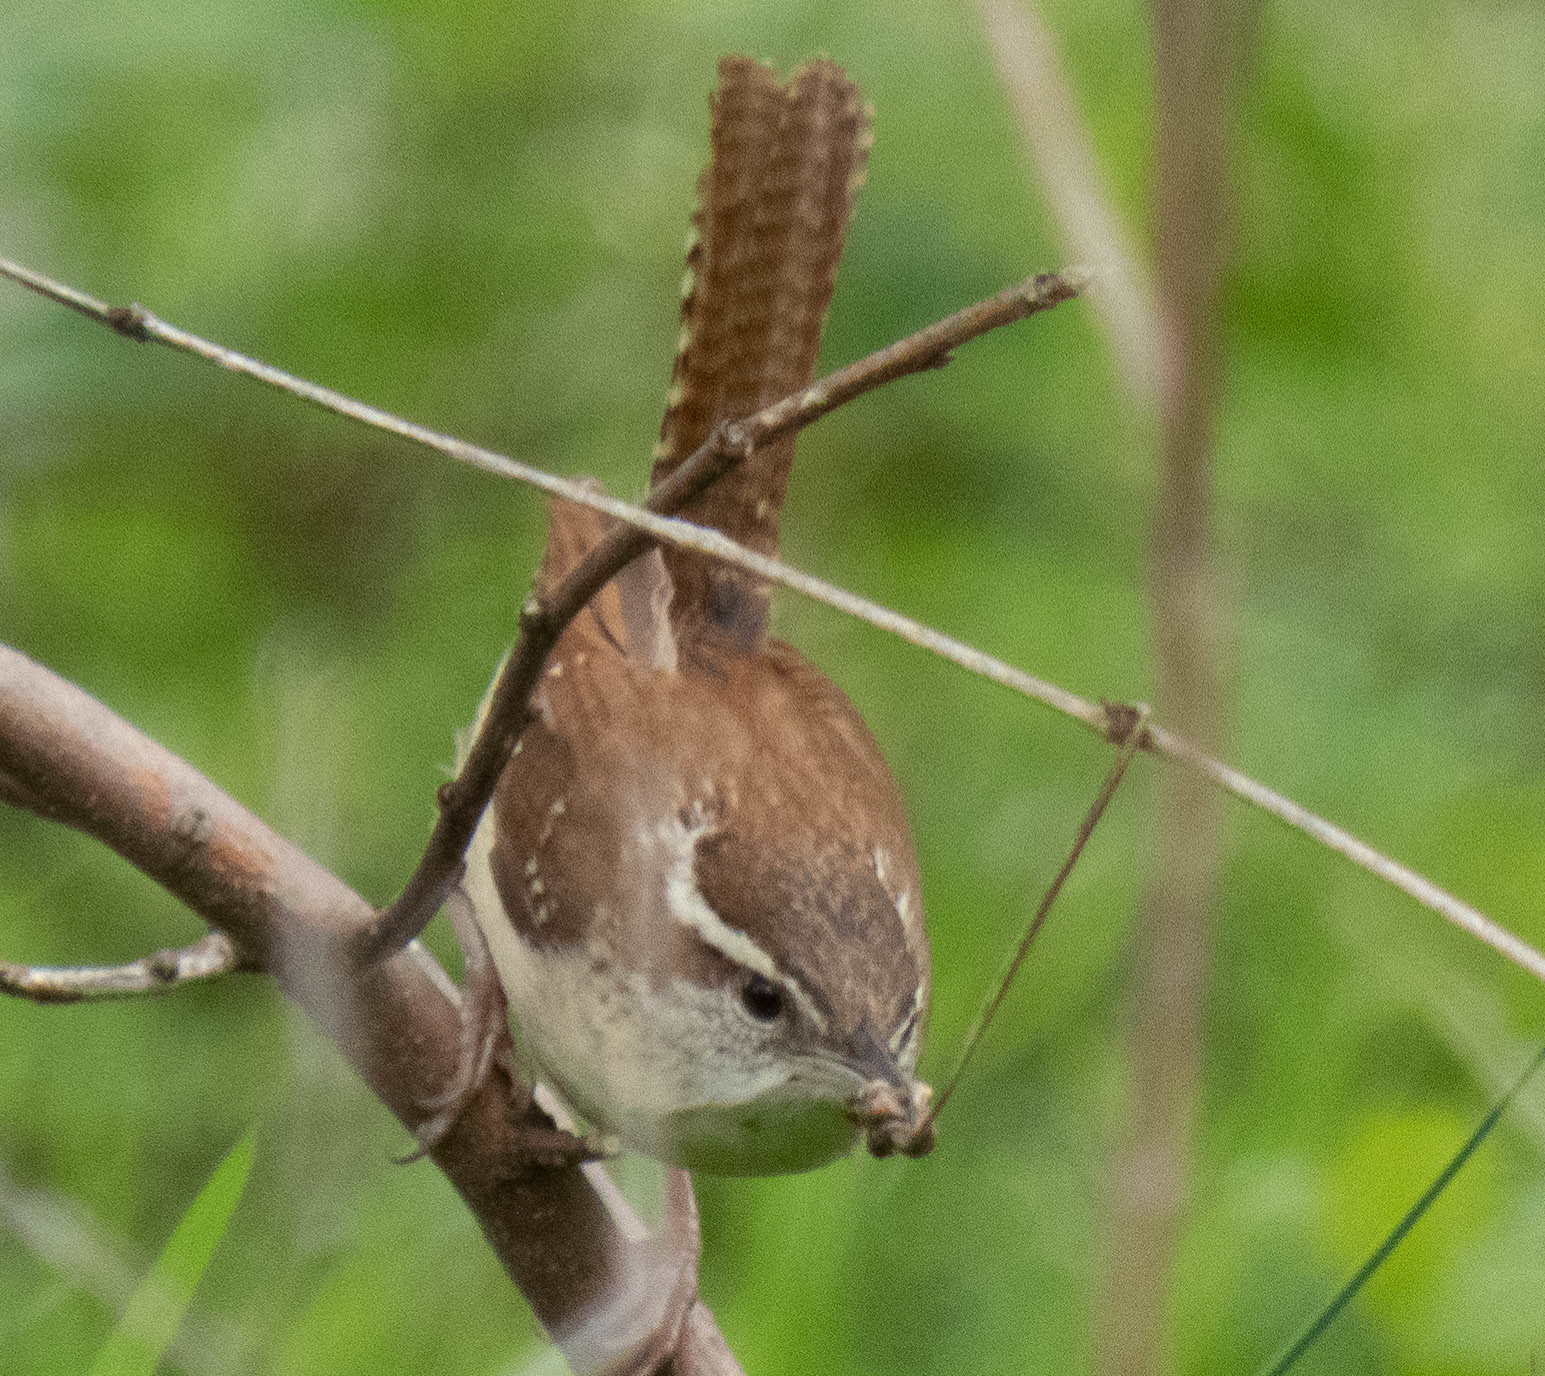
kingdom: Animalia
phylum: Chordata
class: Aves
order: Passeriformes
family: Troglodytidae
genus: Thryothorus
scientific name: Thryothorus ludovicianus
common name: Carolina wren
